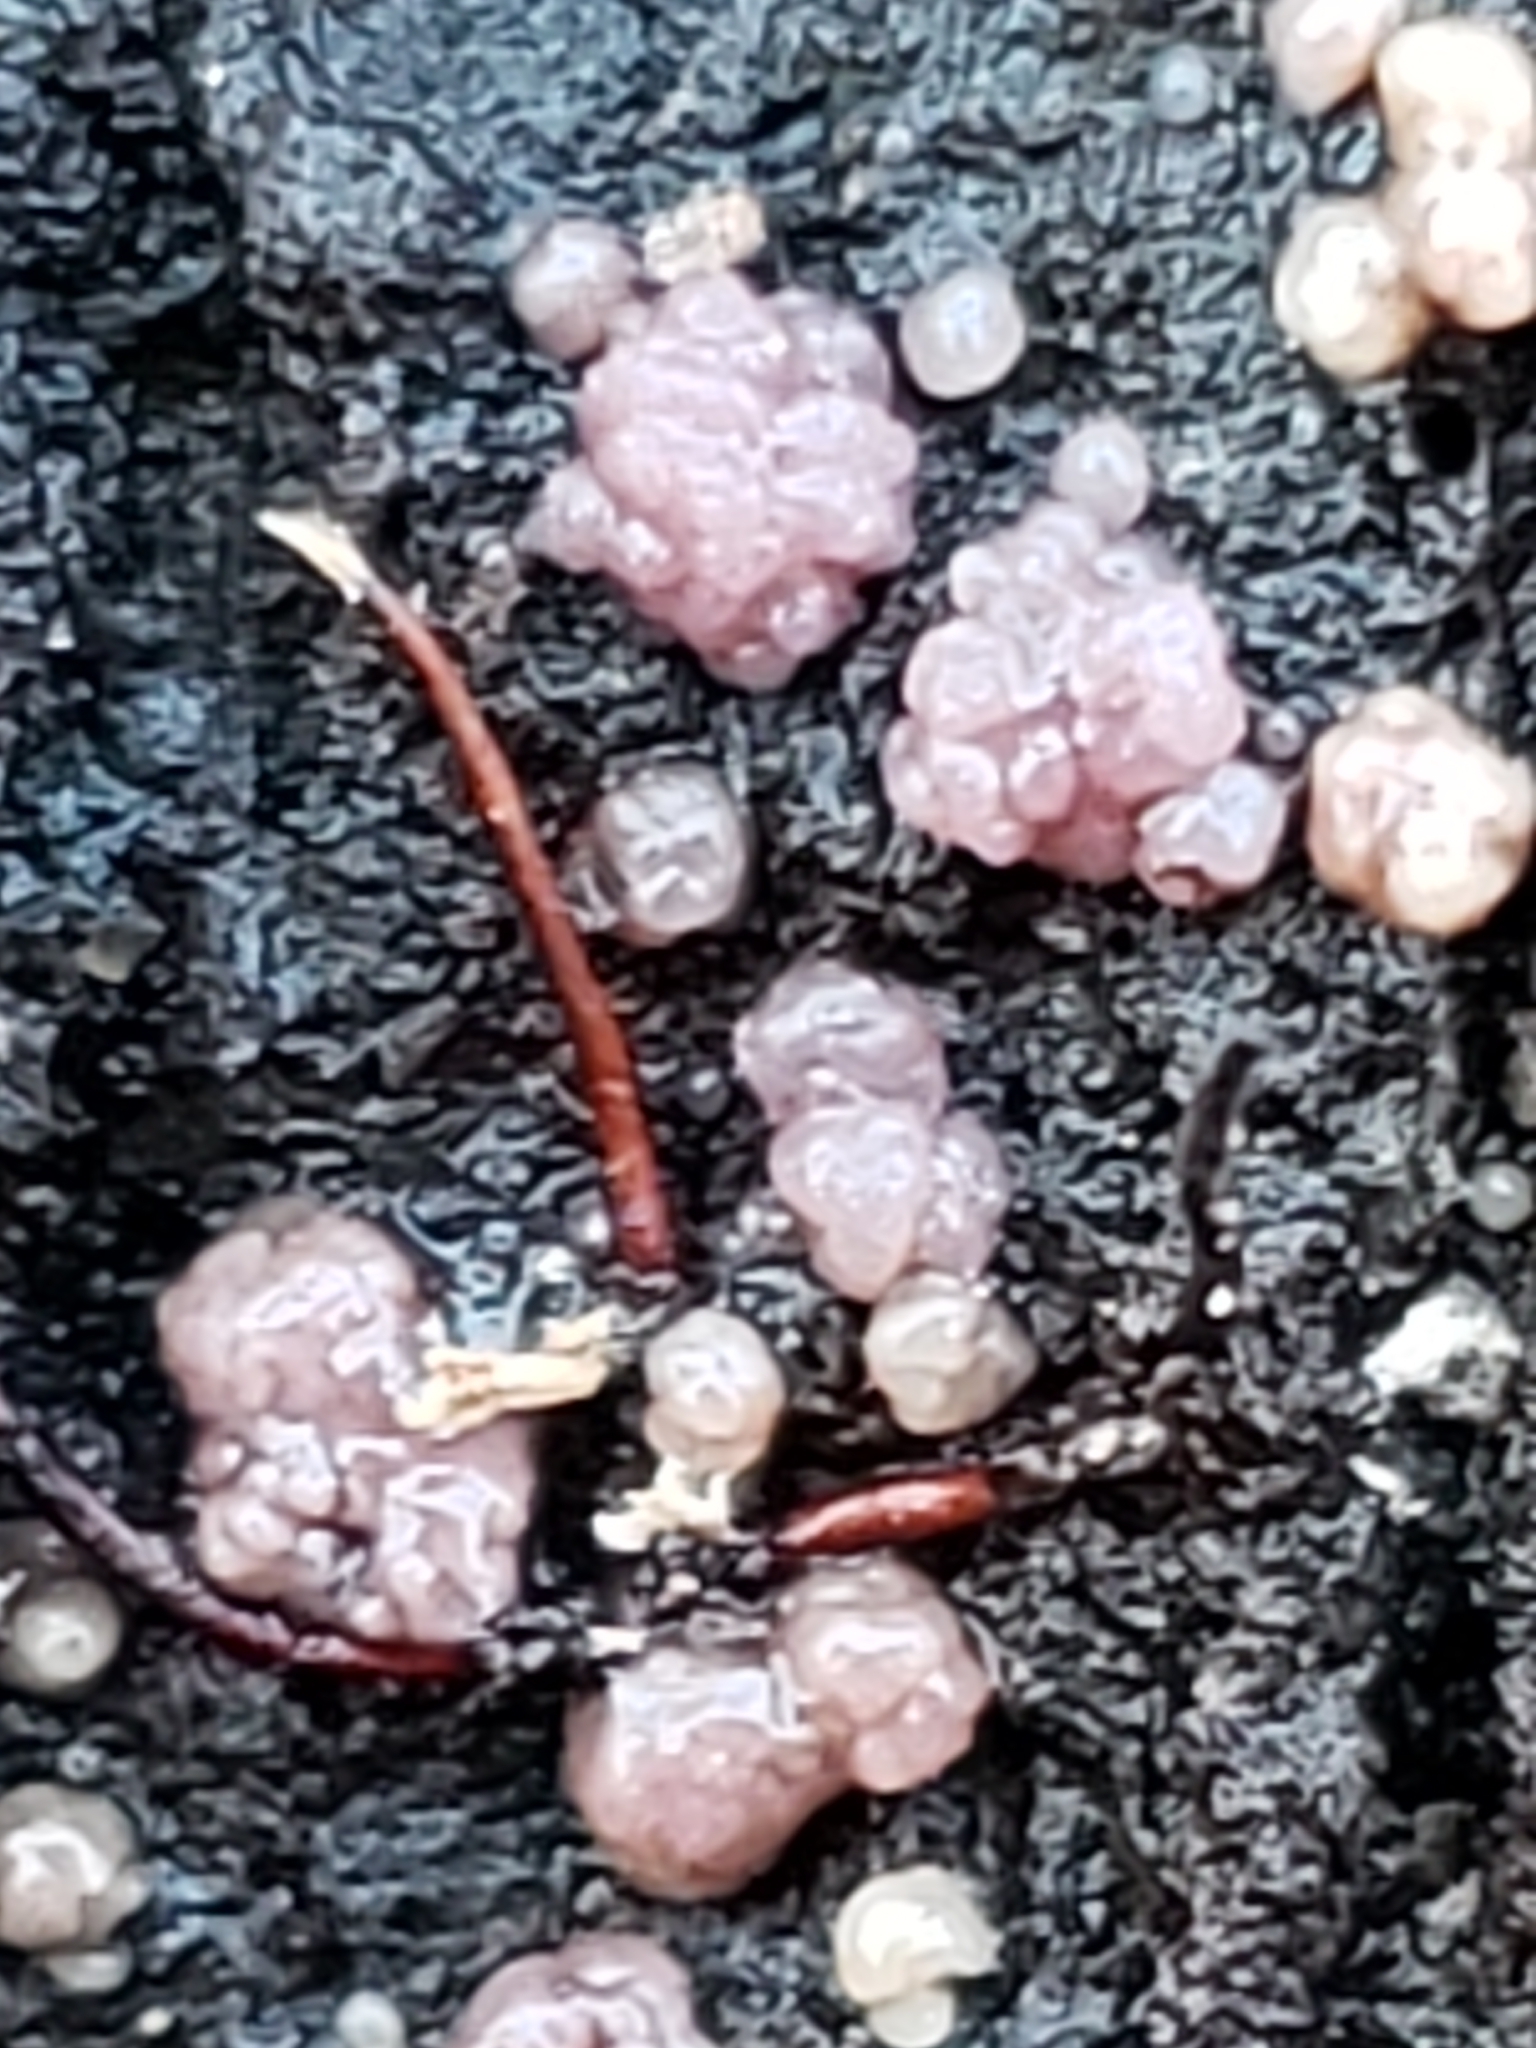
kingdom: Fungi
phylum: Ascomycota
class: Leotiomycetes
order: Helotiales
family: Gelatinodiscaceae
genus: Ascocoryne
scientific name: Ascocoryne sarcoides
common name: Purple jellydisc
